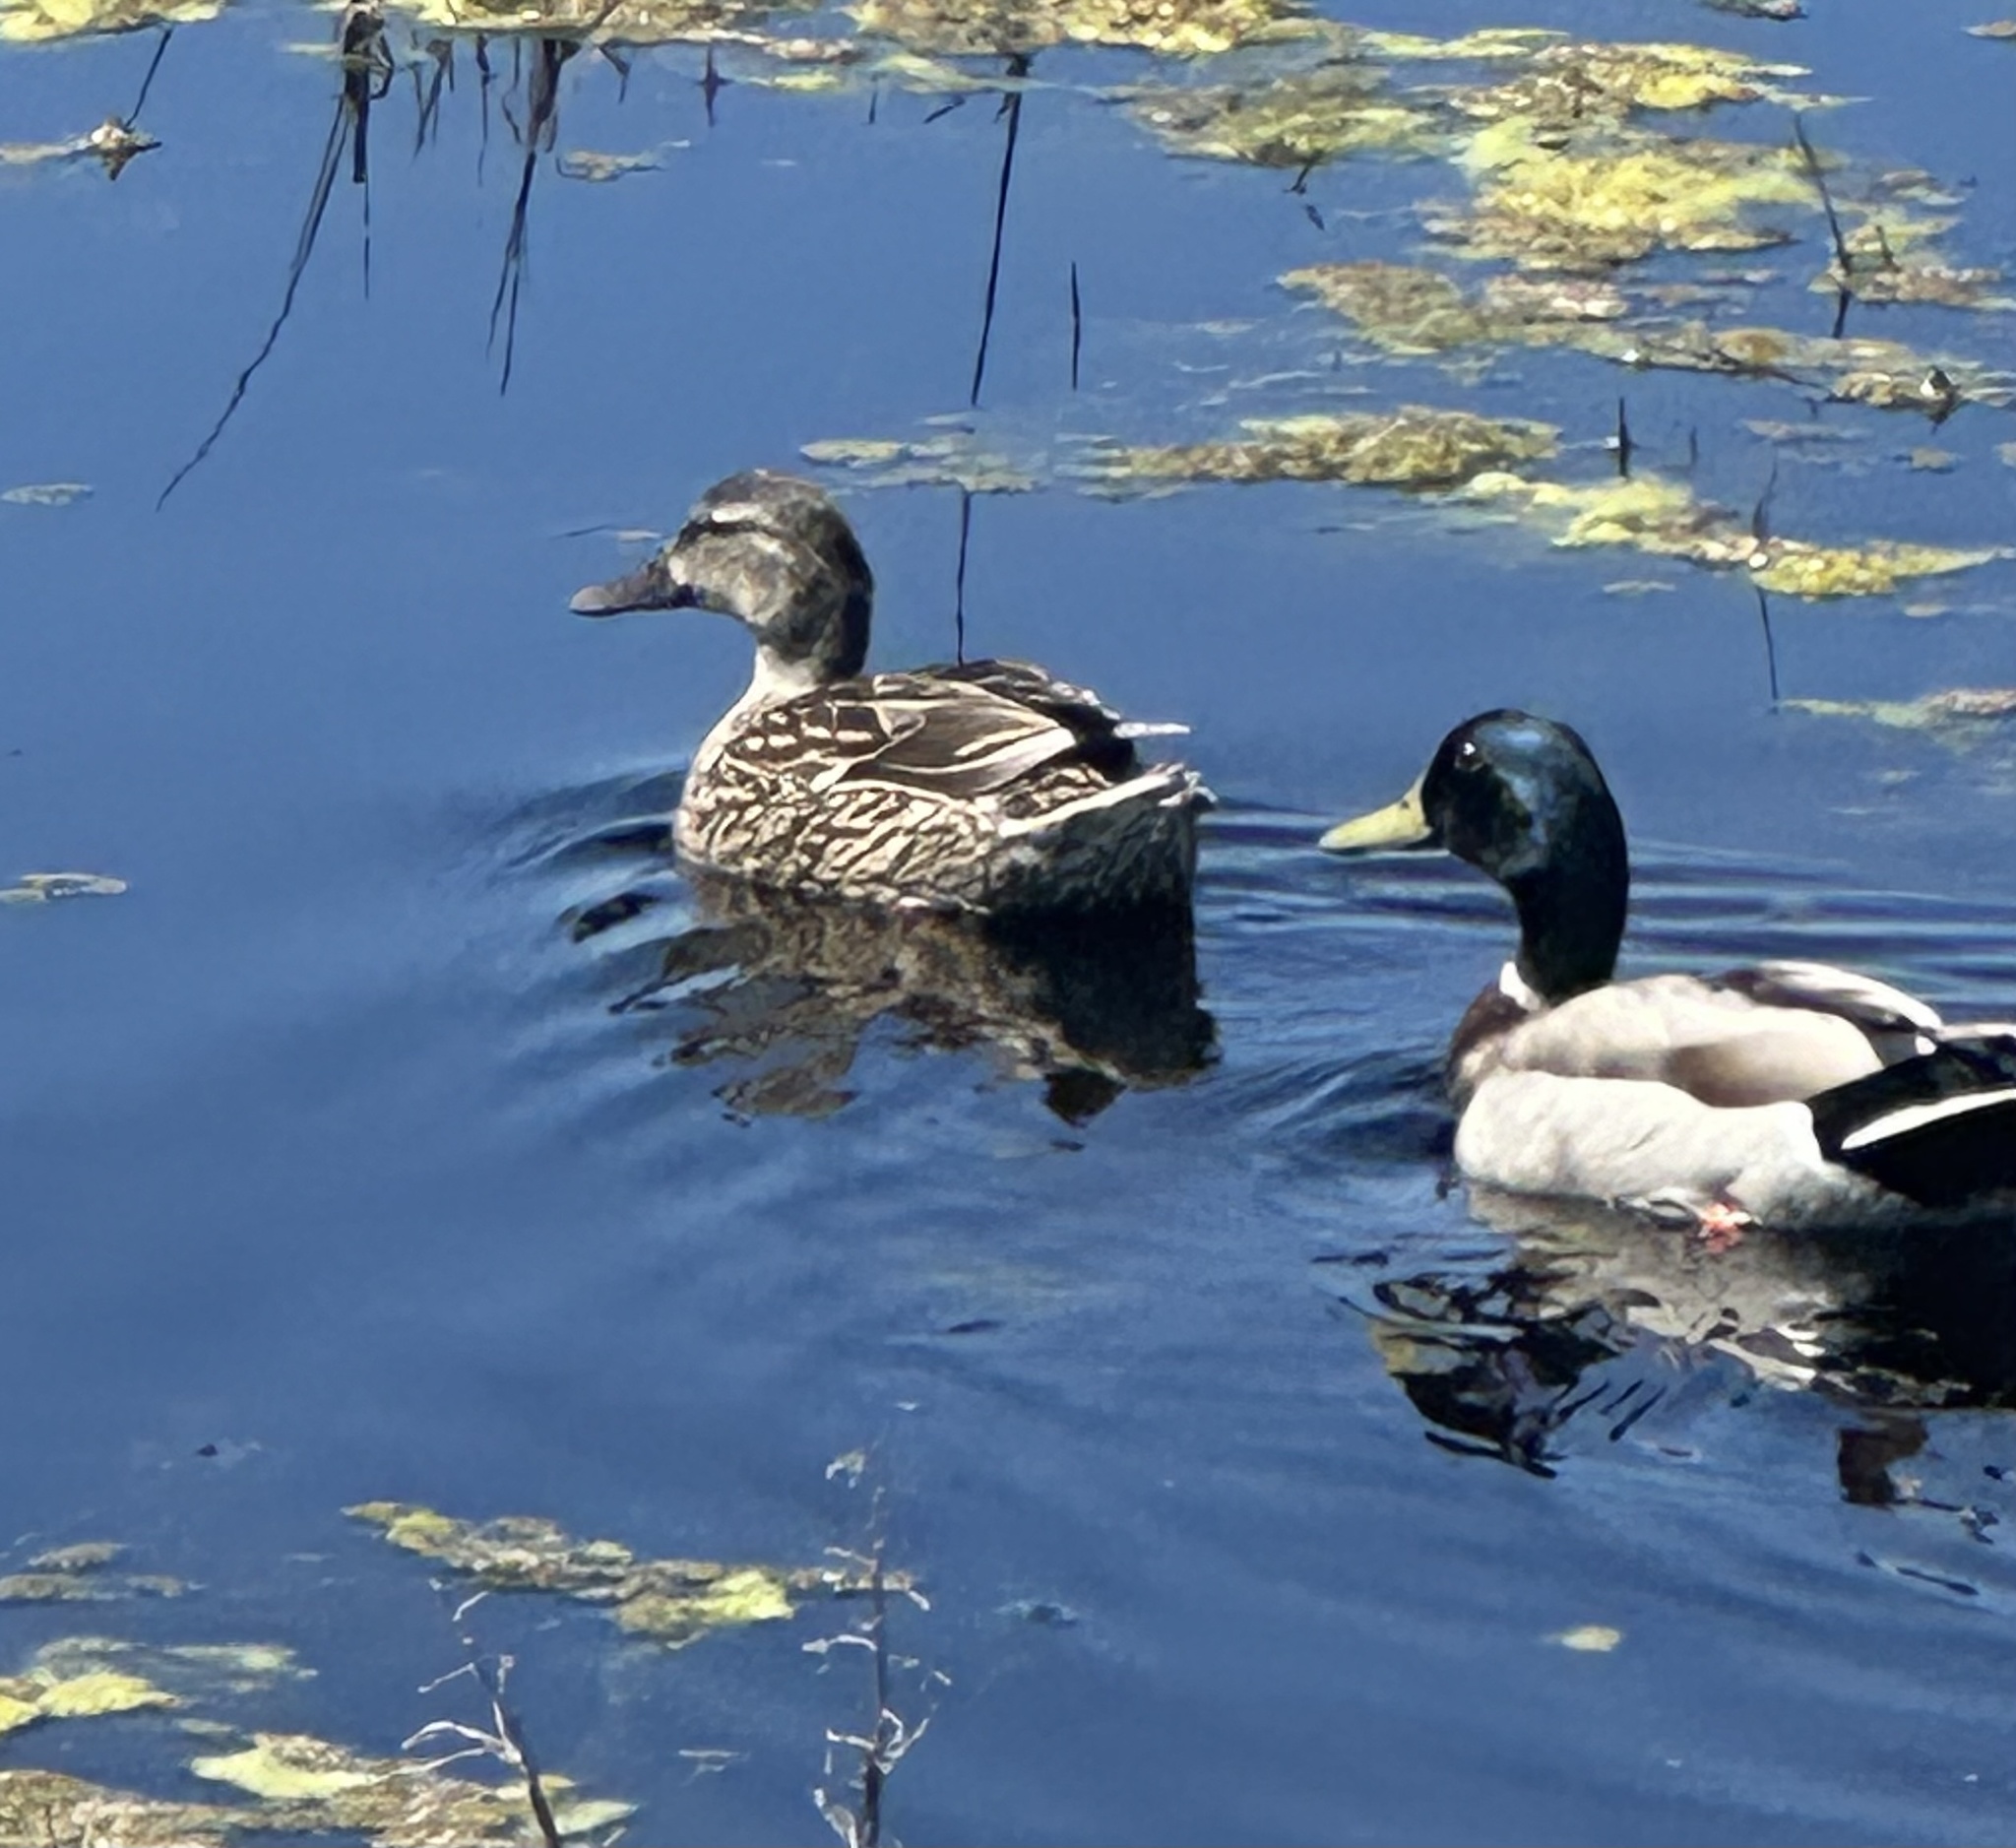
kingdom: Animalia
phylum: Chordata
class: Aves
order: Anseriformes
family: Anatidae
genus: Anas
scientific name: Anas platyrhynchos
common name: Mallard
